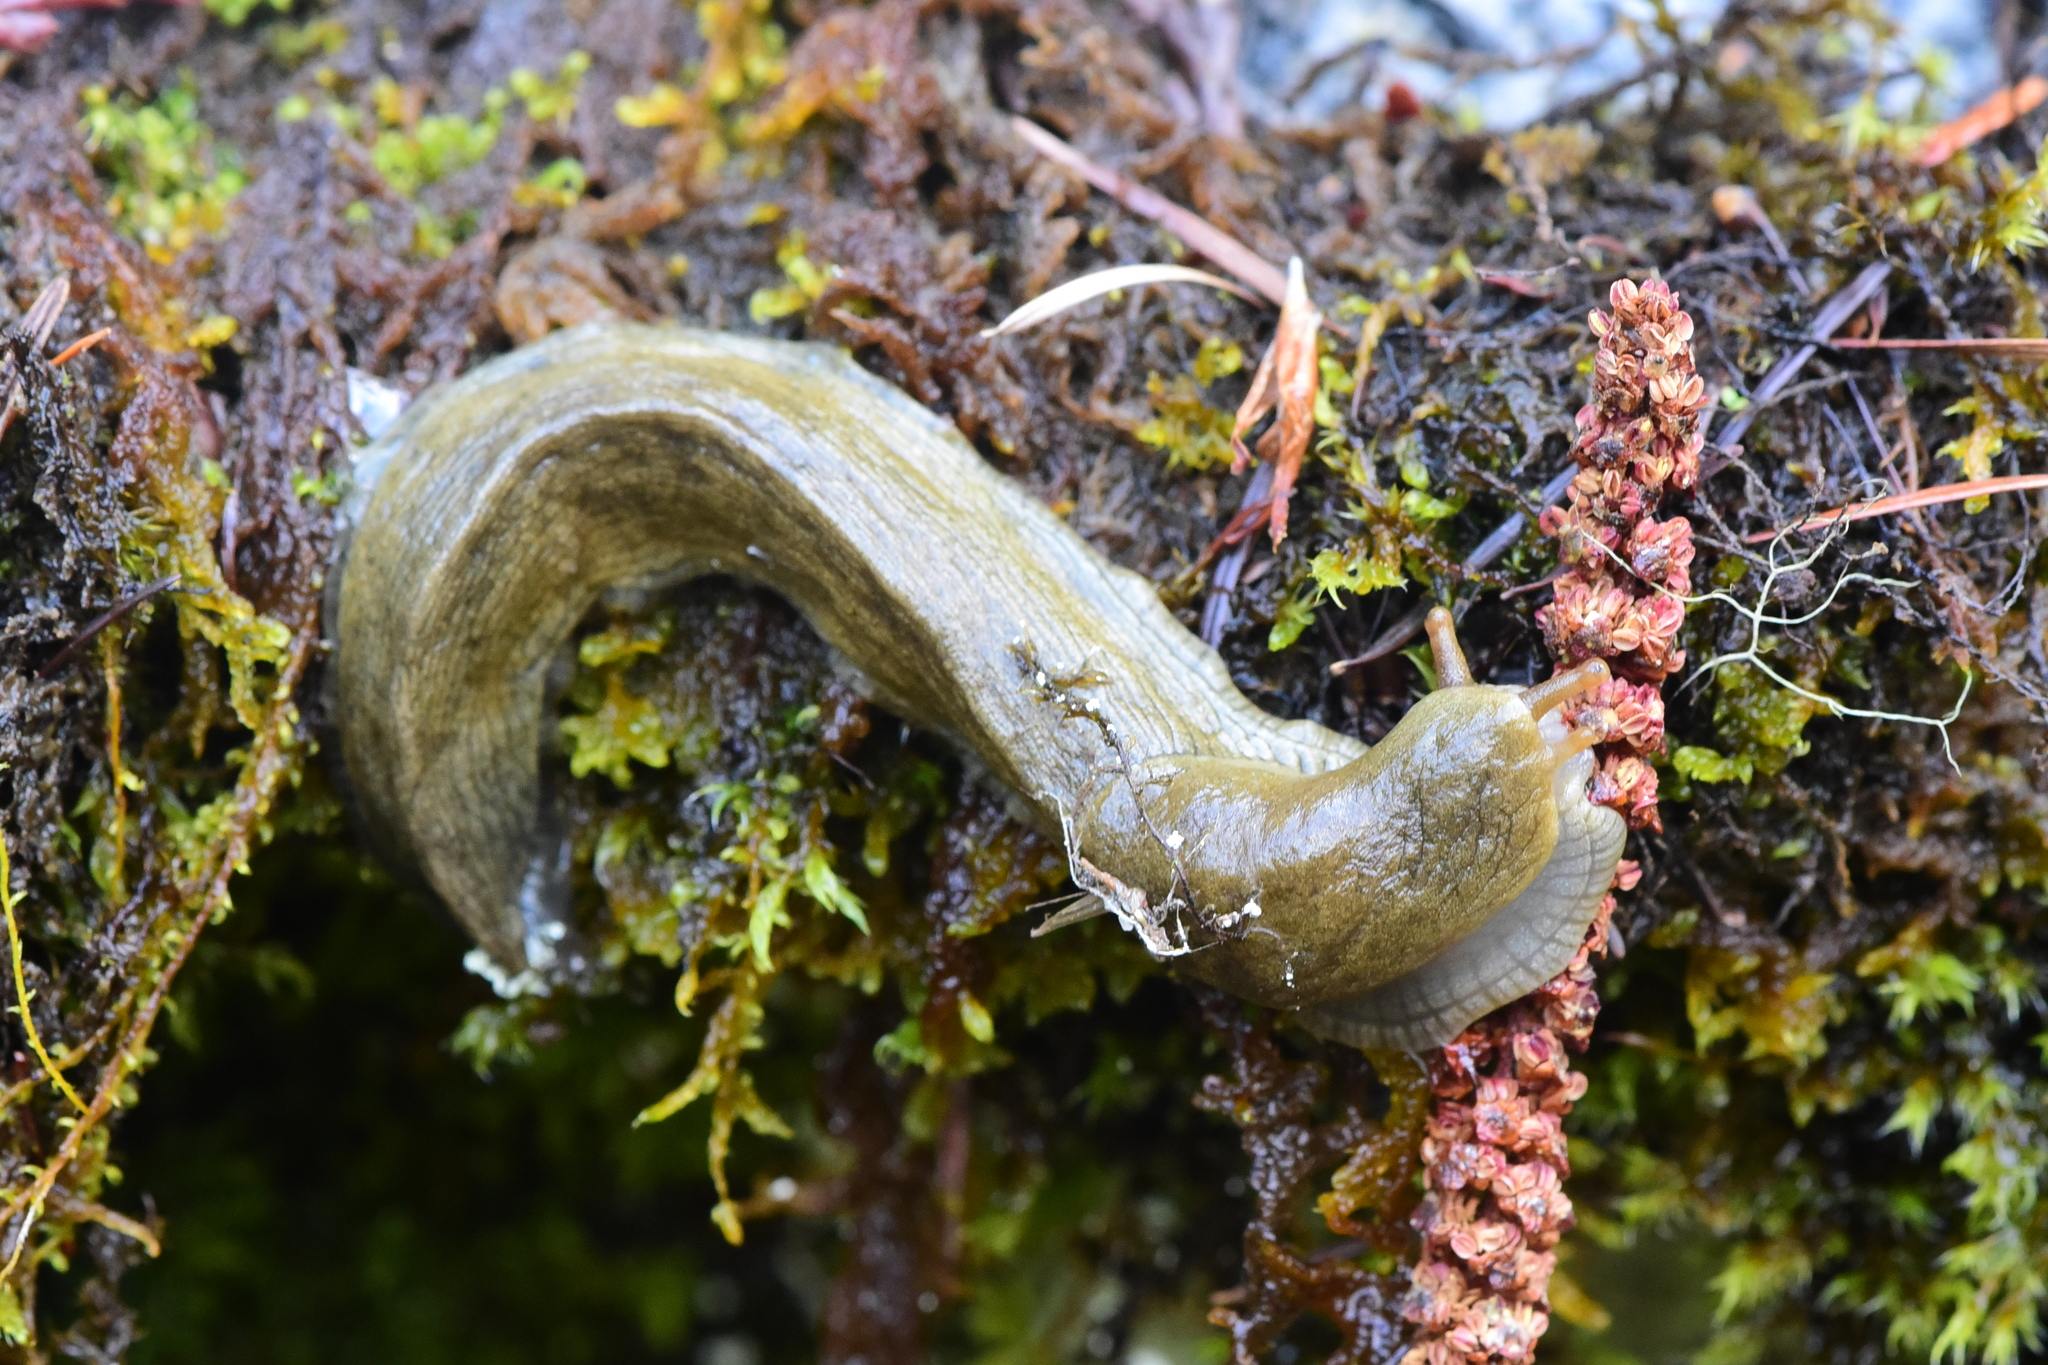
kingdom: Animalia
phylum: Mollusca
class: Gastropoda
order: Stylommatophora
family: Ariolimacidae
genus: Ariolimax
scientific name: Ariolimax columbianus
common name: Pacific banana slug
